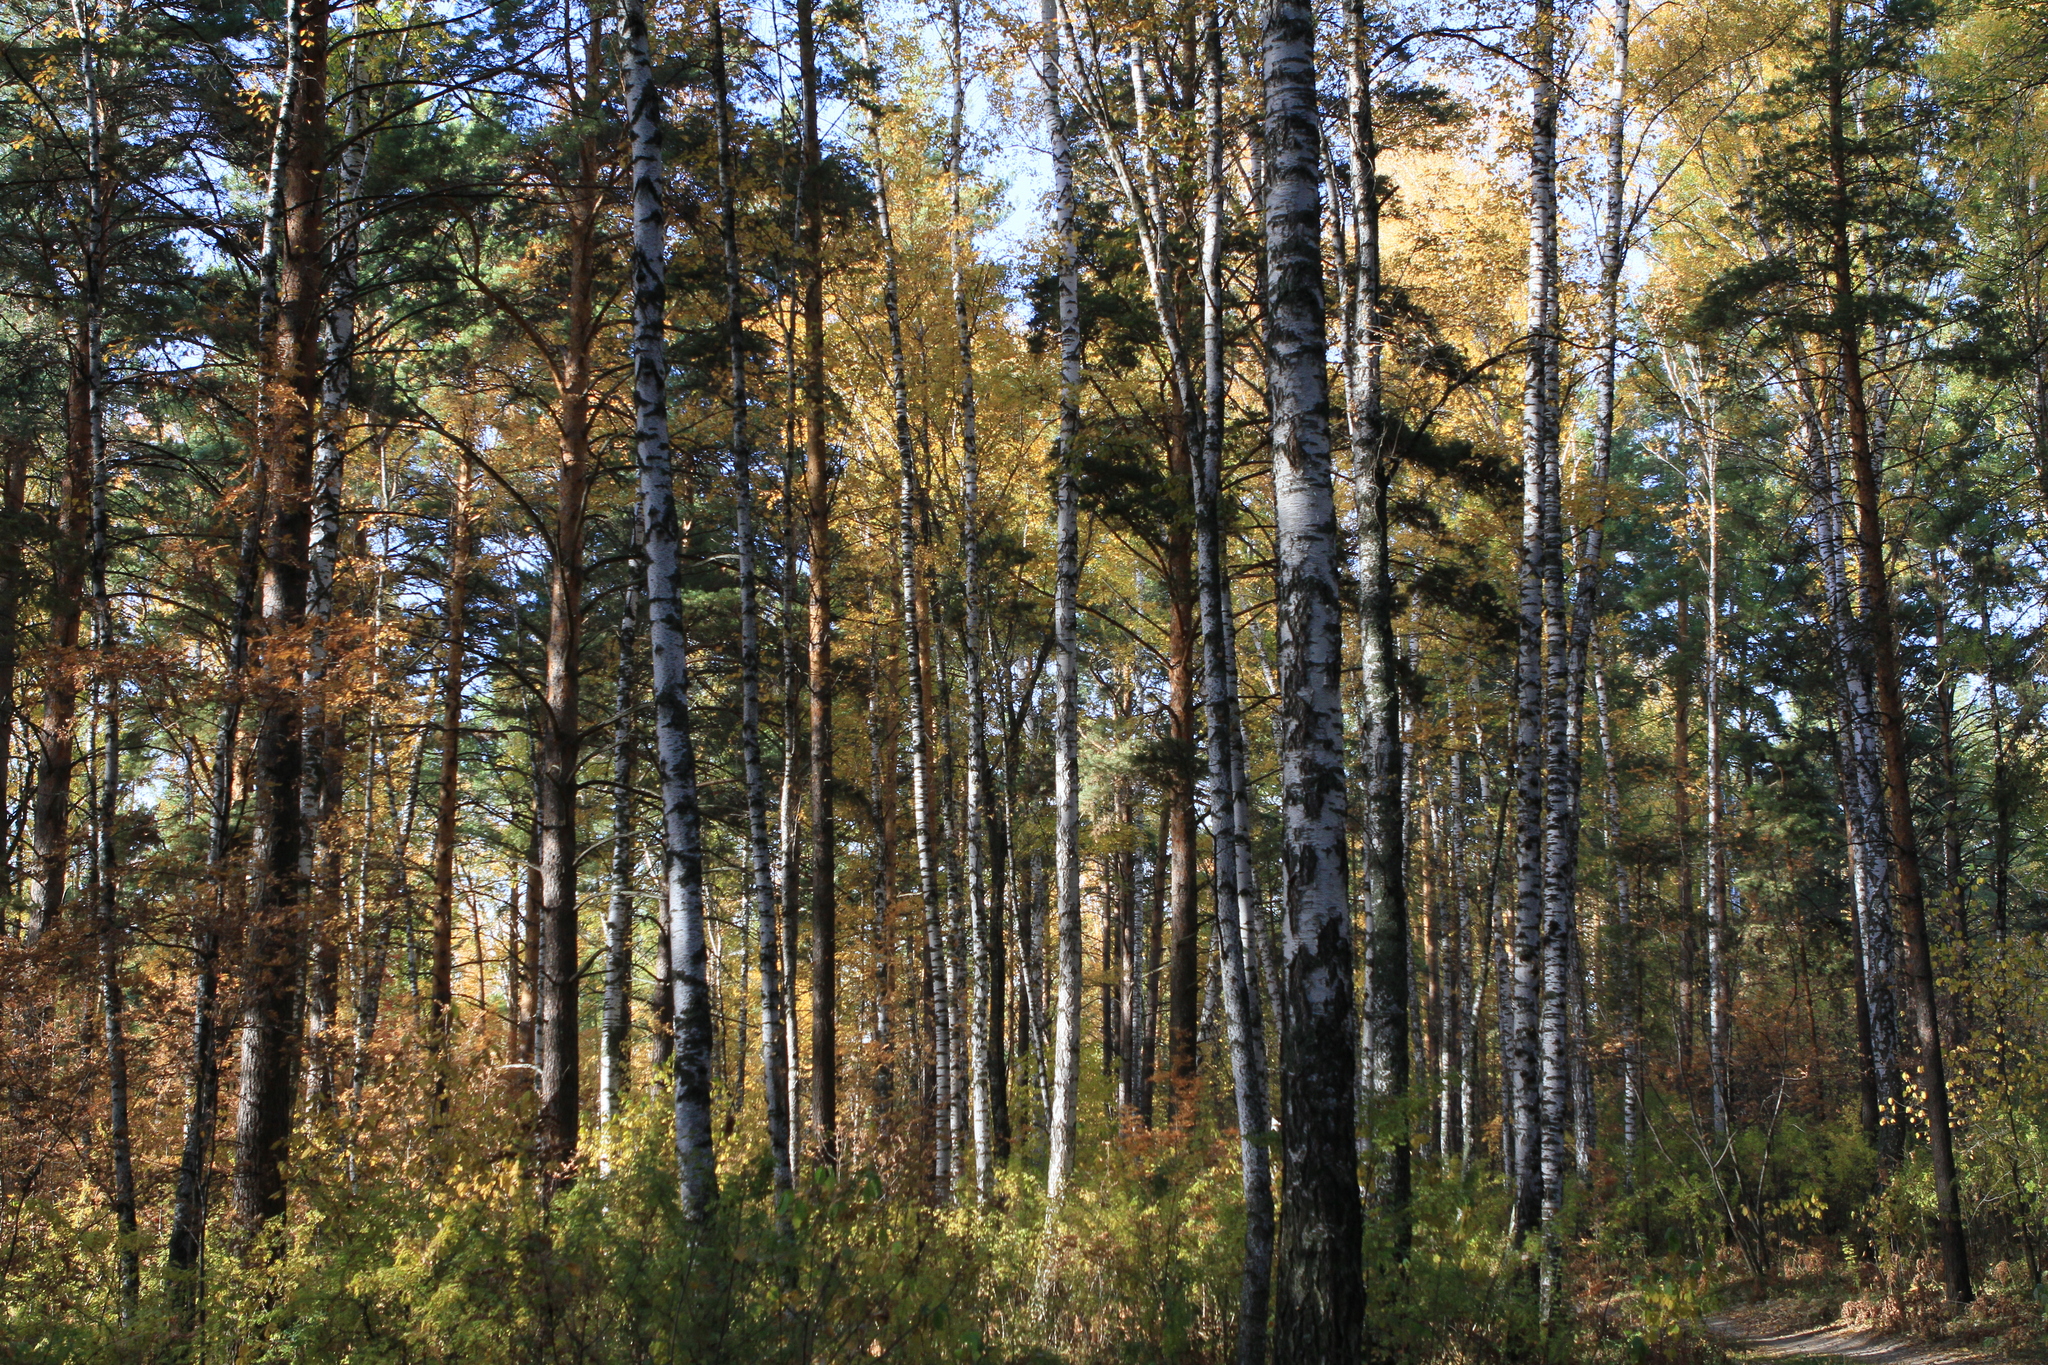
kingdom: Plantae
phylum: Tracheophyta
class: Pinopsida
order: Pinales
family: Pinaceae
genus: Pinus
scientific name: Pinus sylvestris
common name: Scots pine
